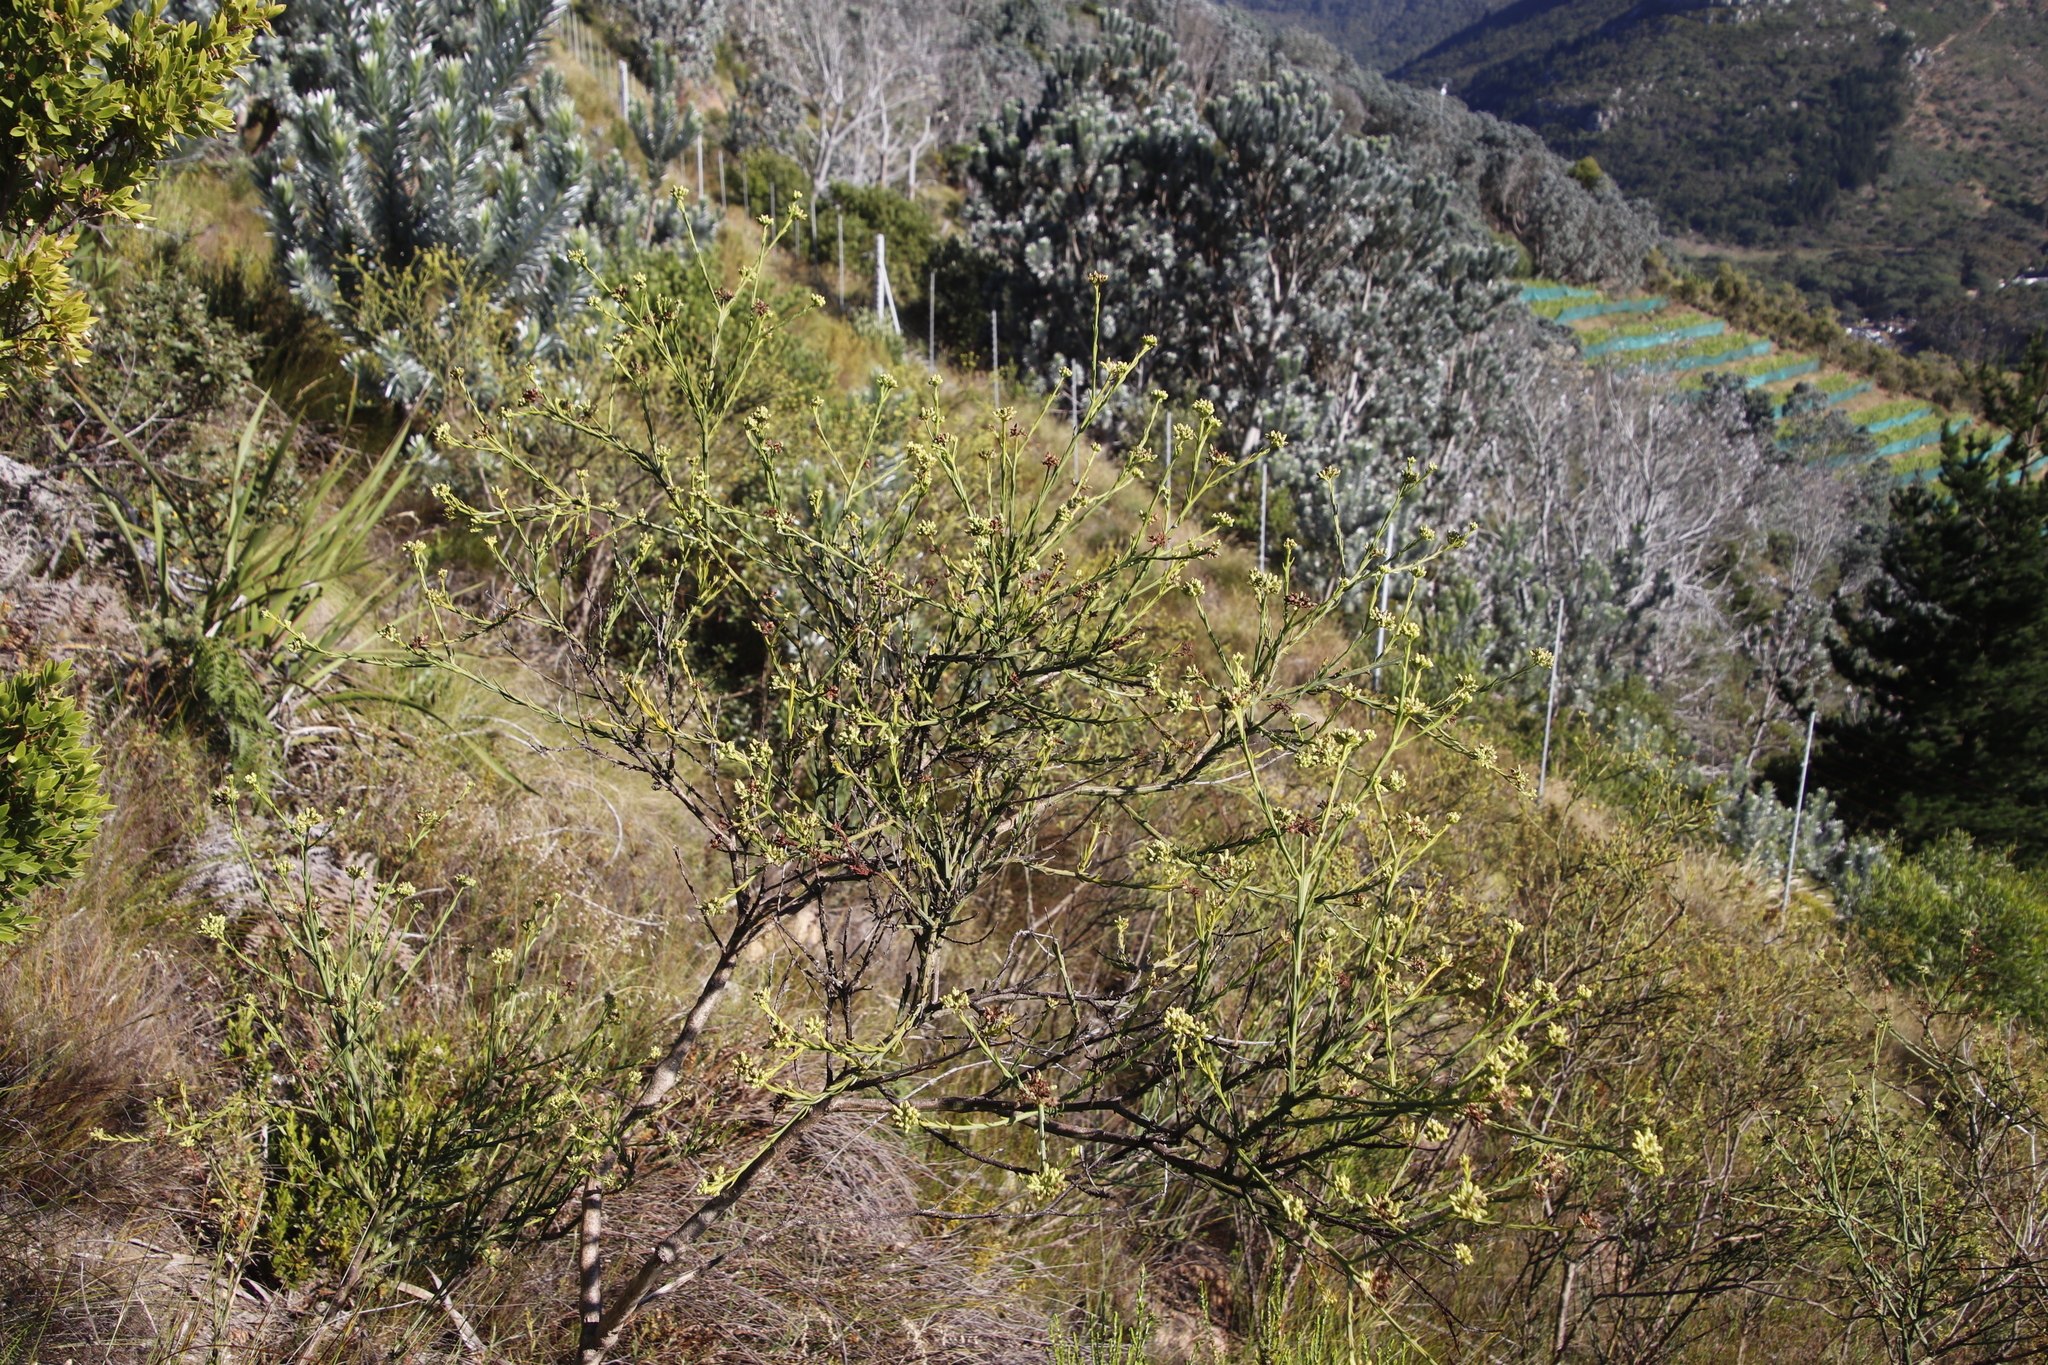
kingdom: Plantae
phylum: Tracheophyta
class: Magnoliopsida
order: Santalales
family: Thesiaceae
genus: Thesium
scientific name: Thesium strictum
